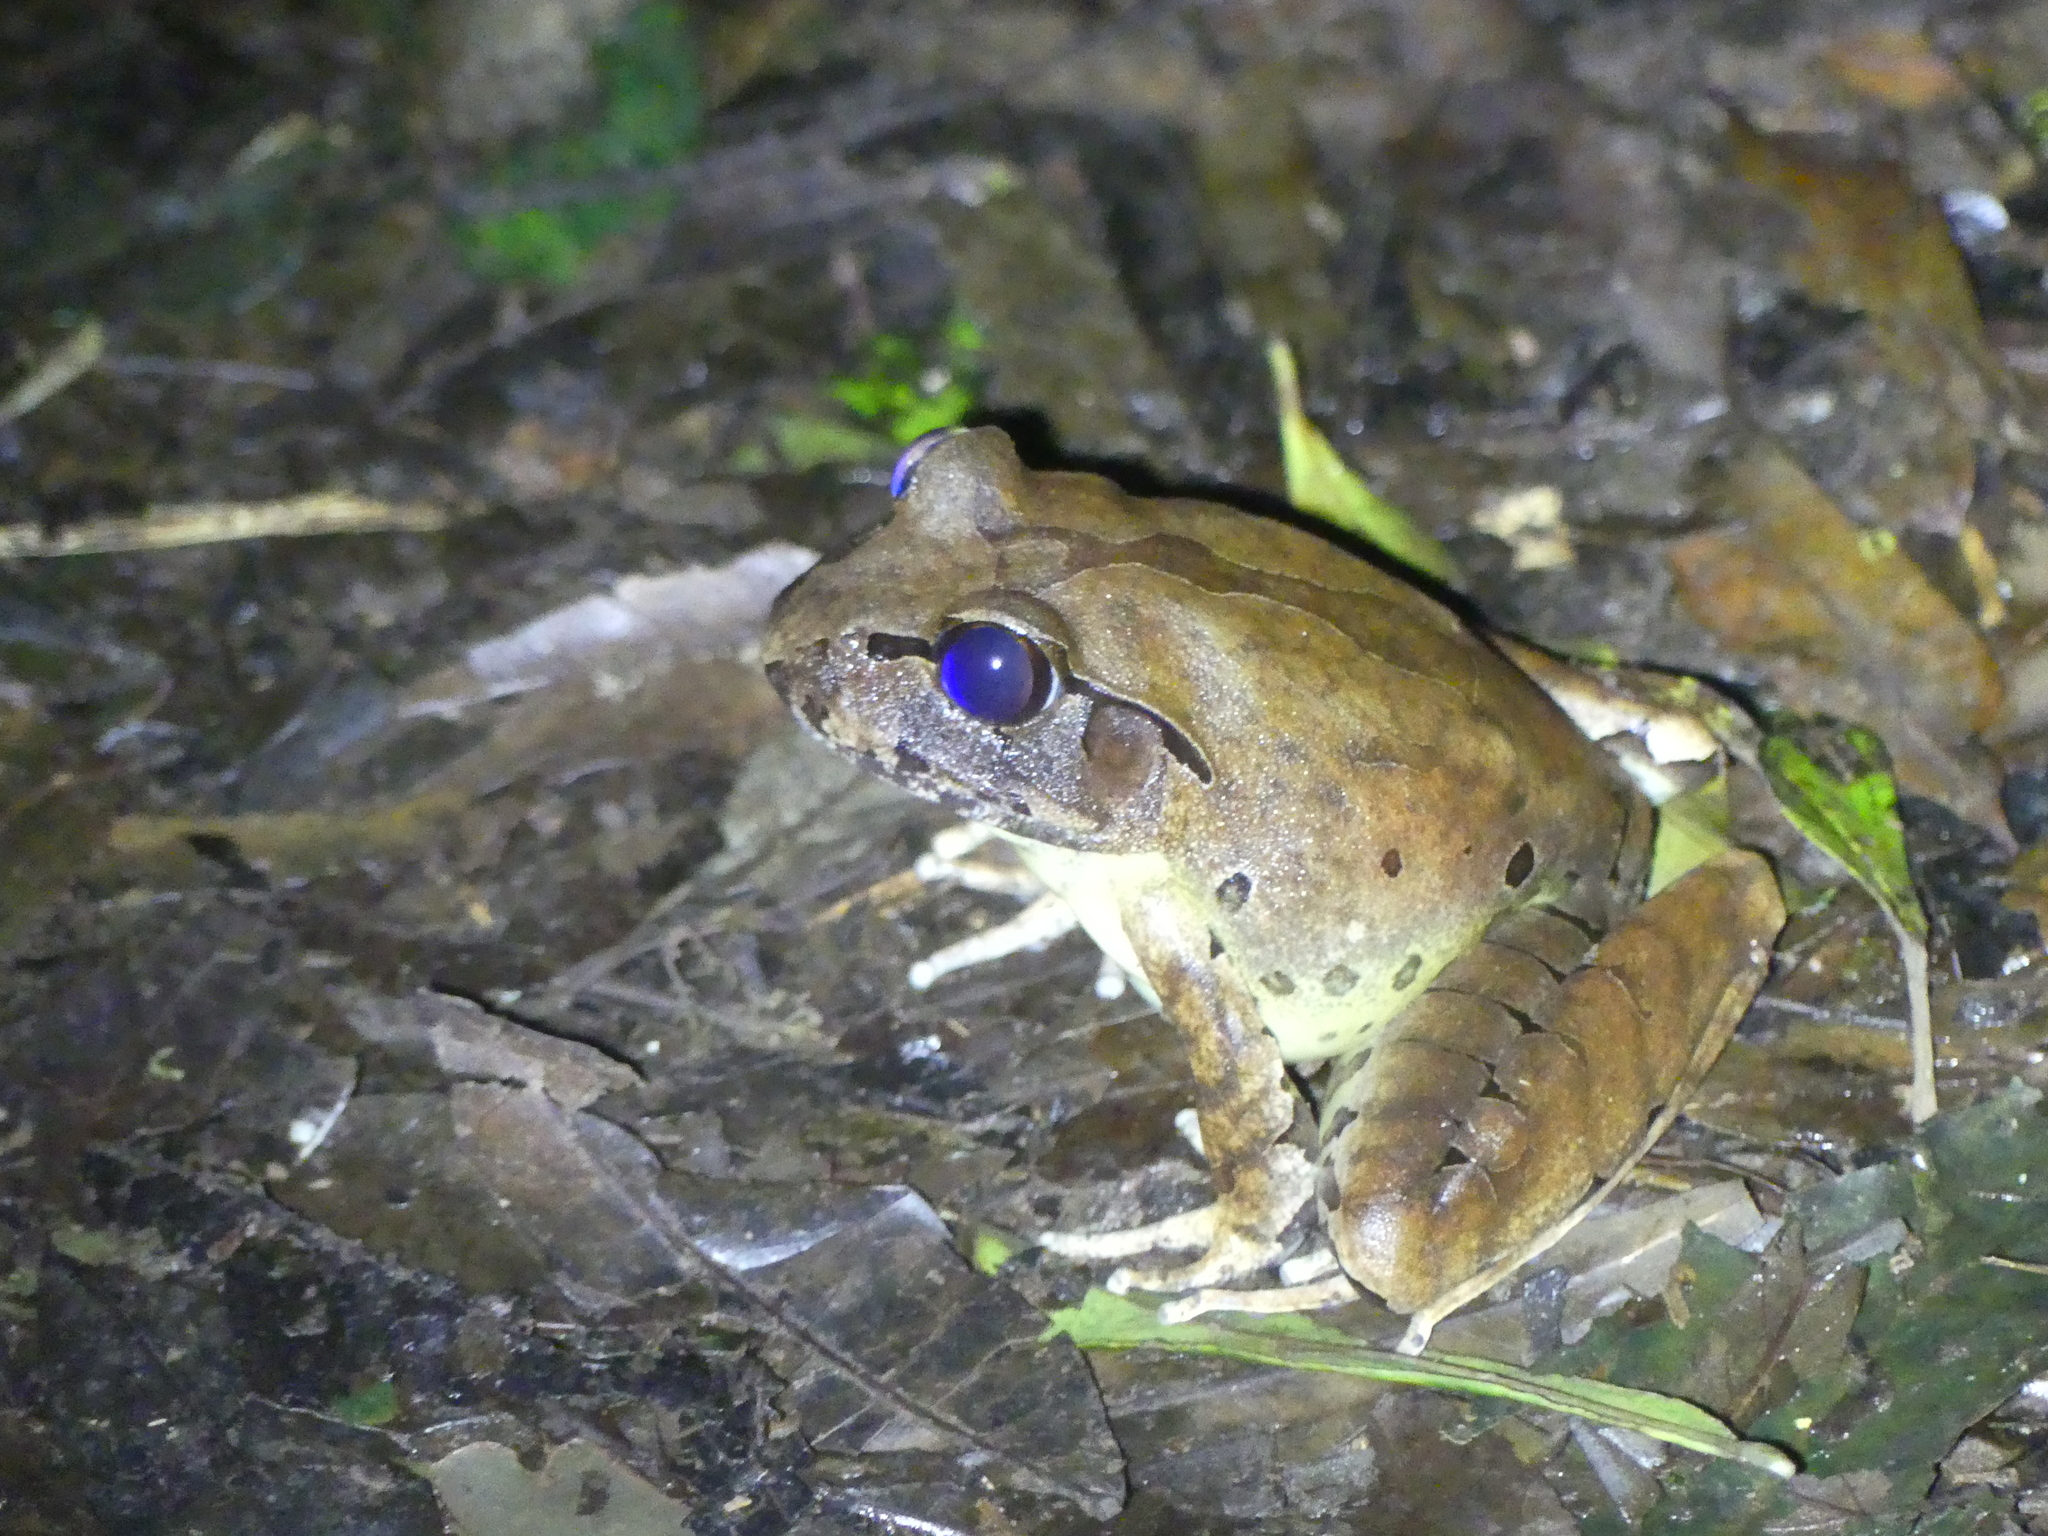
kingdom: Animalia
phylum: Chordata
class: Amphibia
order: Anura
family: Myobatrachidae
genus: Mixophyes
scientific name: Mixophyes fleayi
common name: Fleay’s barred-frog
